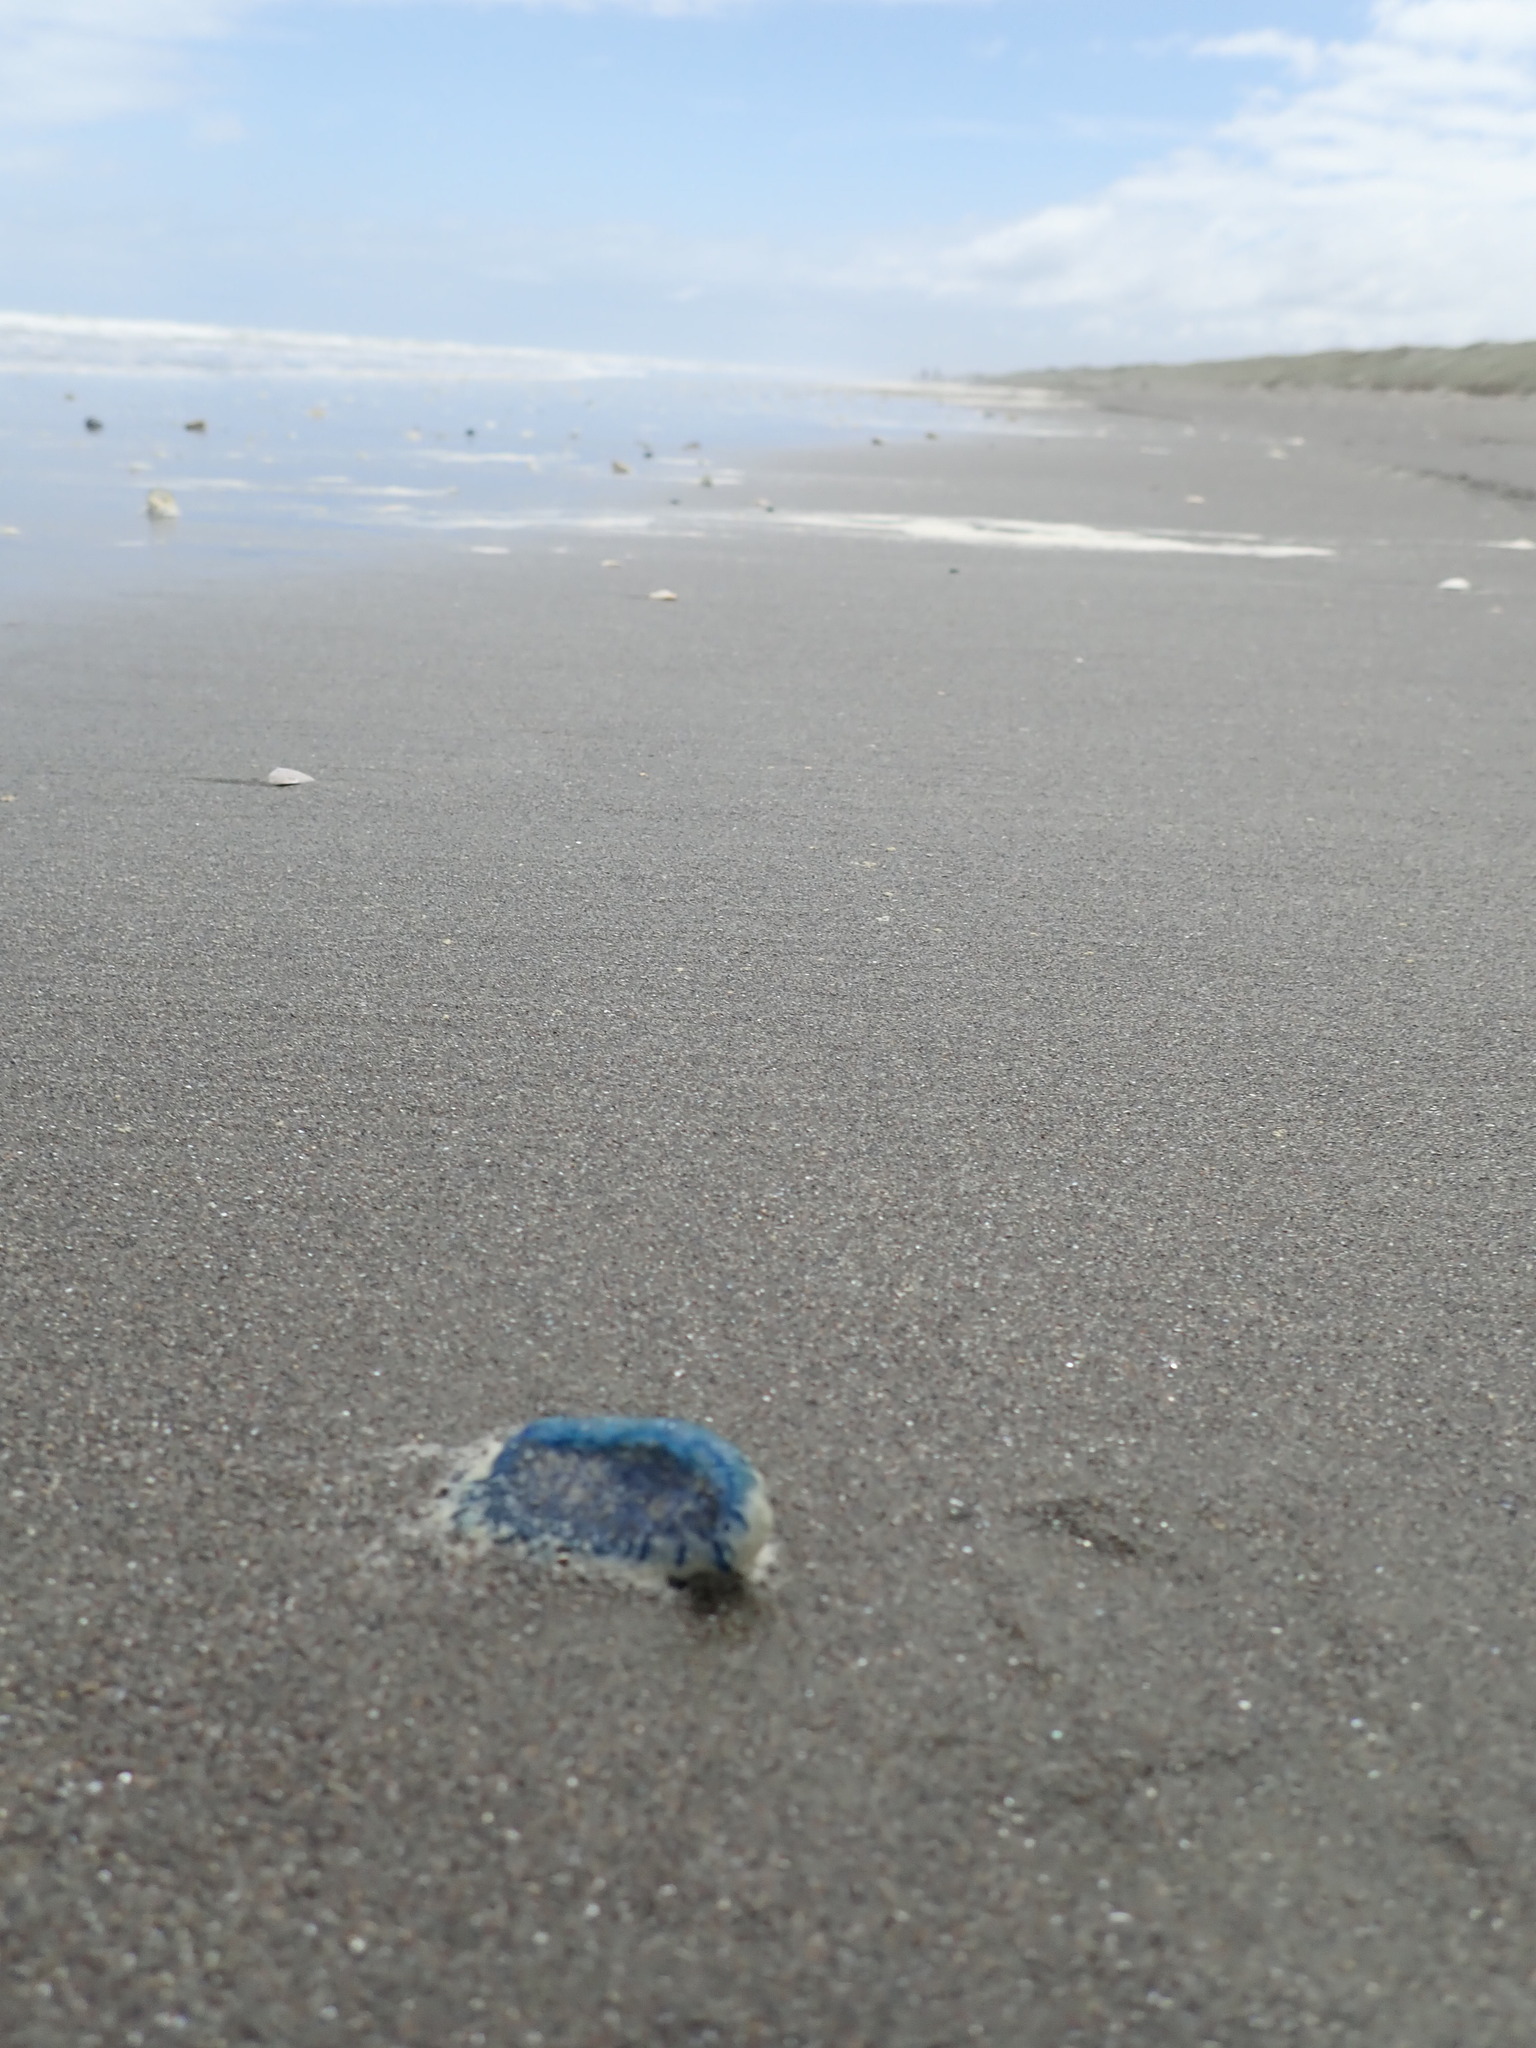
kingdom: Animalia
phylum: Cnidaria
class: Hydrozoa
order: Anthoathecata
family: Porpitidae
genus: Velella
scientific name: Velella velella
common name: By-the-wind-sailor
